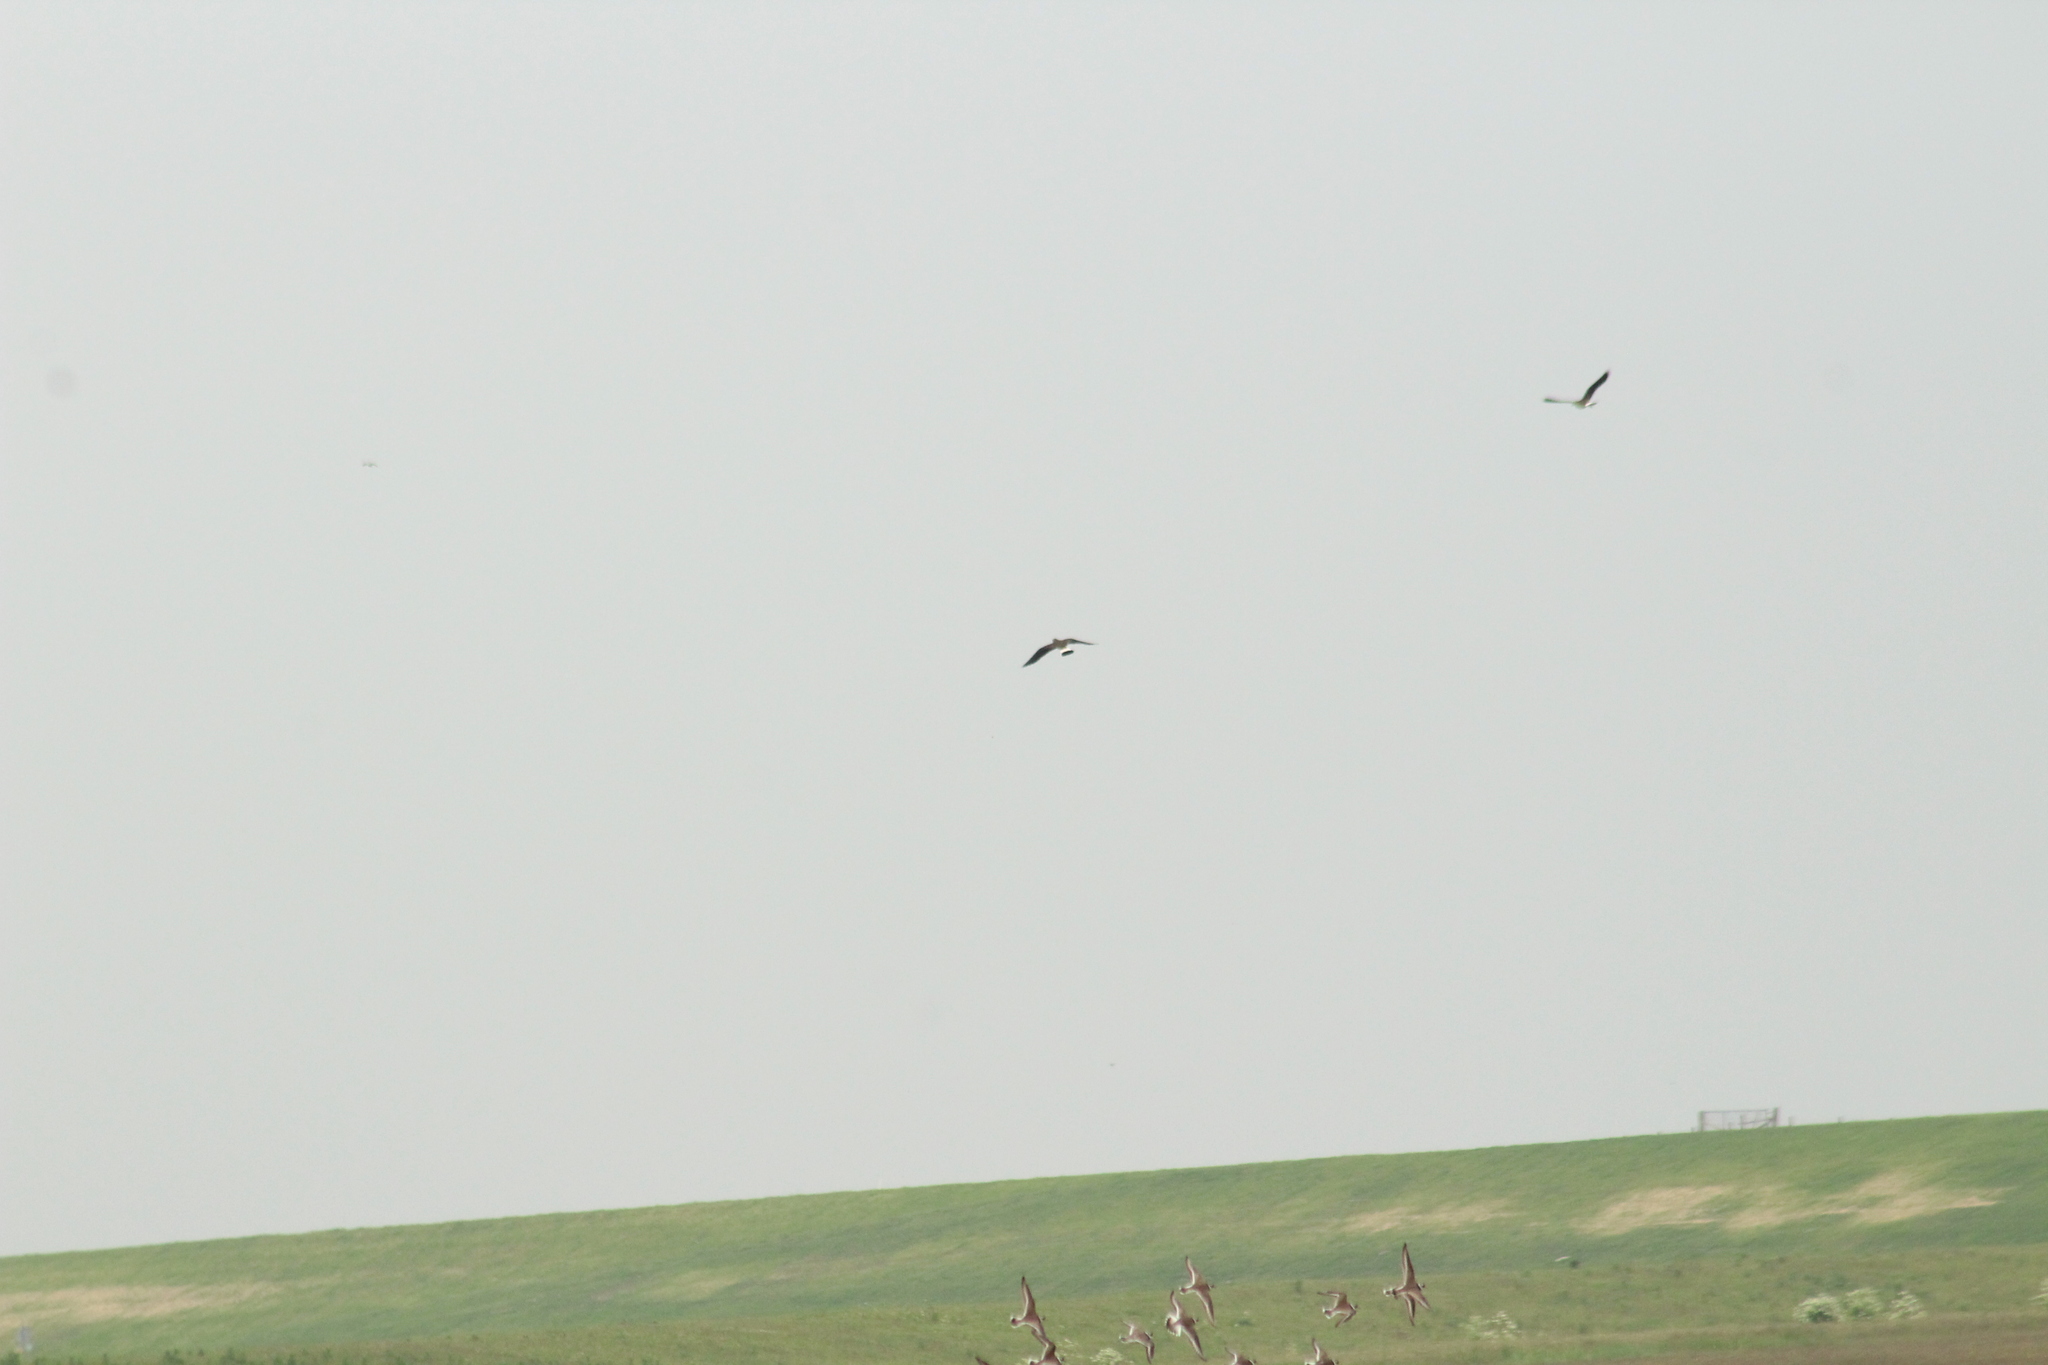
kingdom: Animalia
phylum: Chordata
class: Aves
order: Charadriiformes
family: Charadriidae
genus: Vanellus
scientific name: Vanellus vanellus
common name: Northern lapwing
